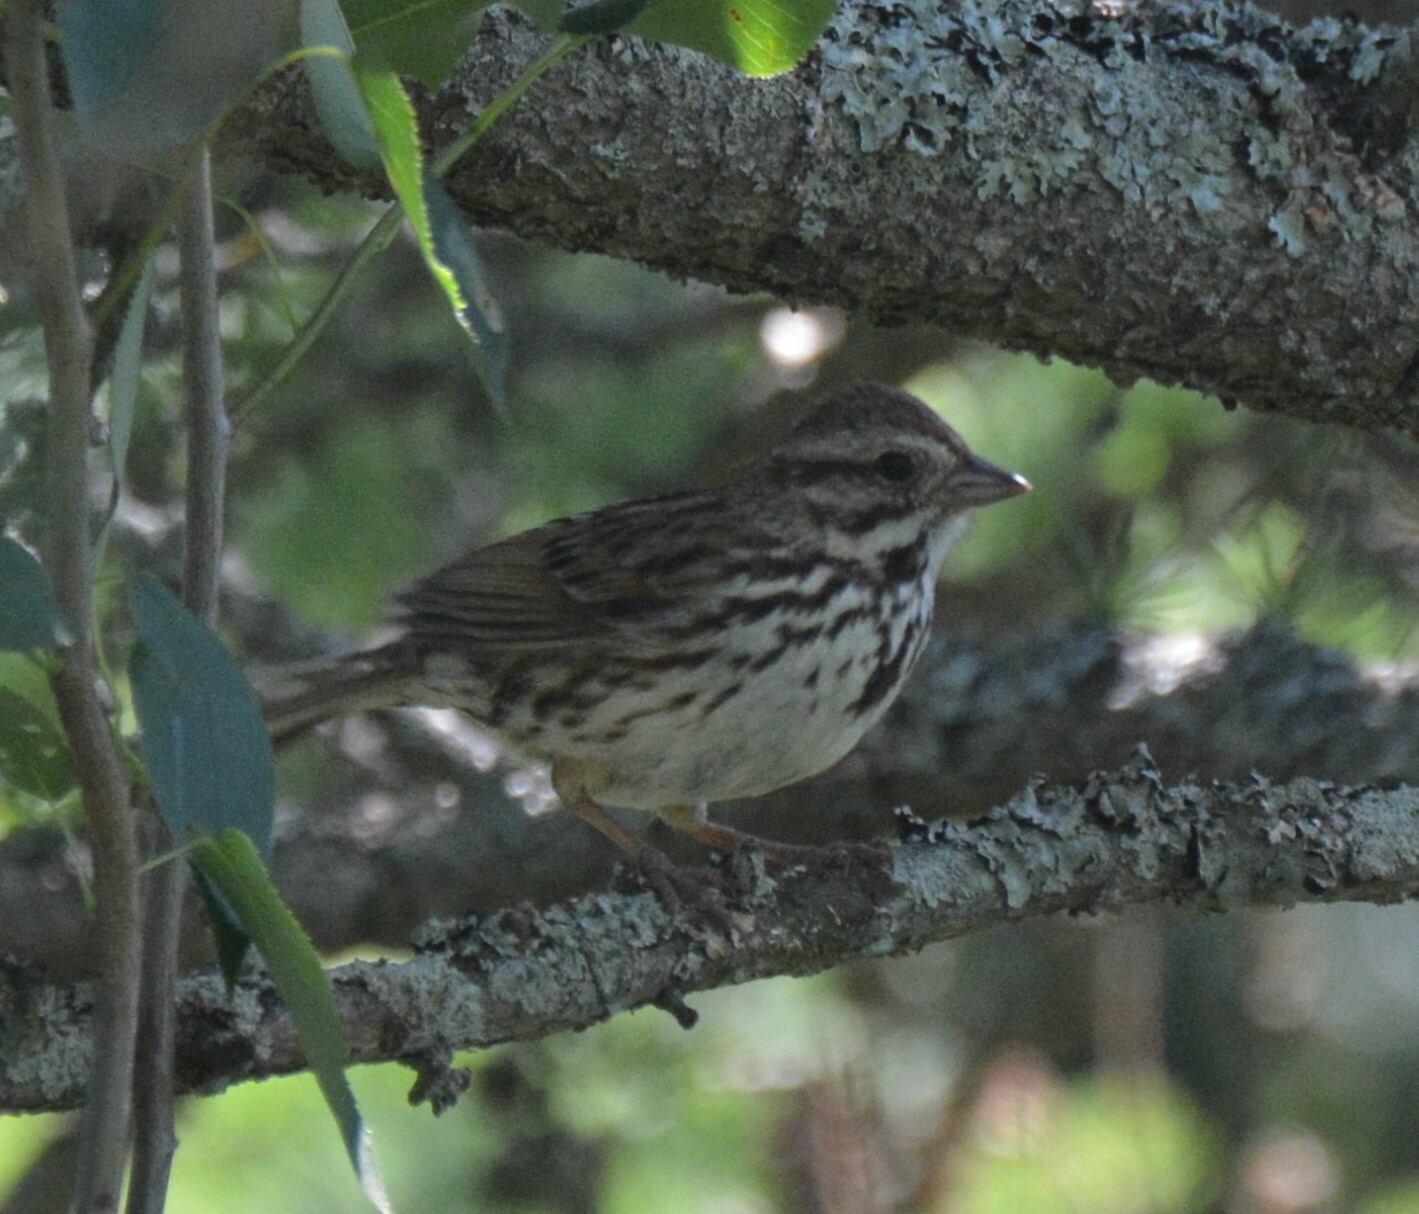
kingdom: Animalia
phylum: Chordata
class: Aves
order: Passeriformes
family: Passerellidae
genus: Melospiza
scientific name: Melospiza melodia
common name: Song sparrow
